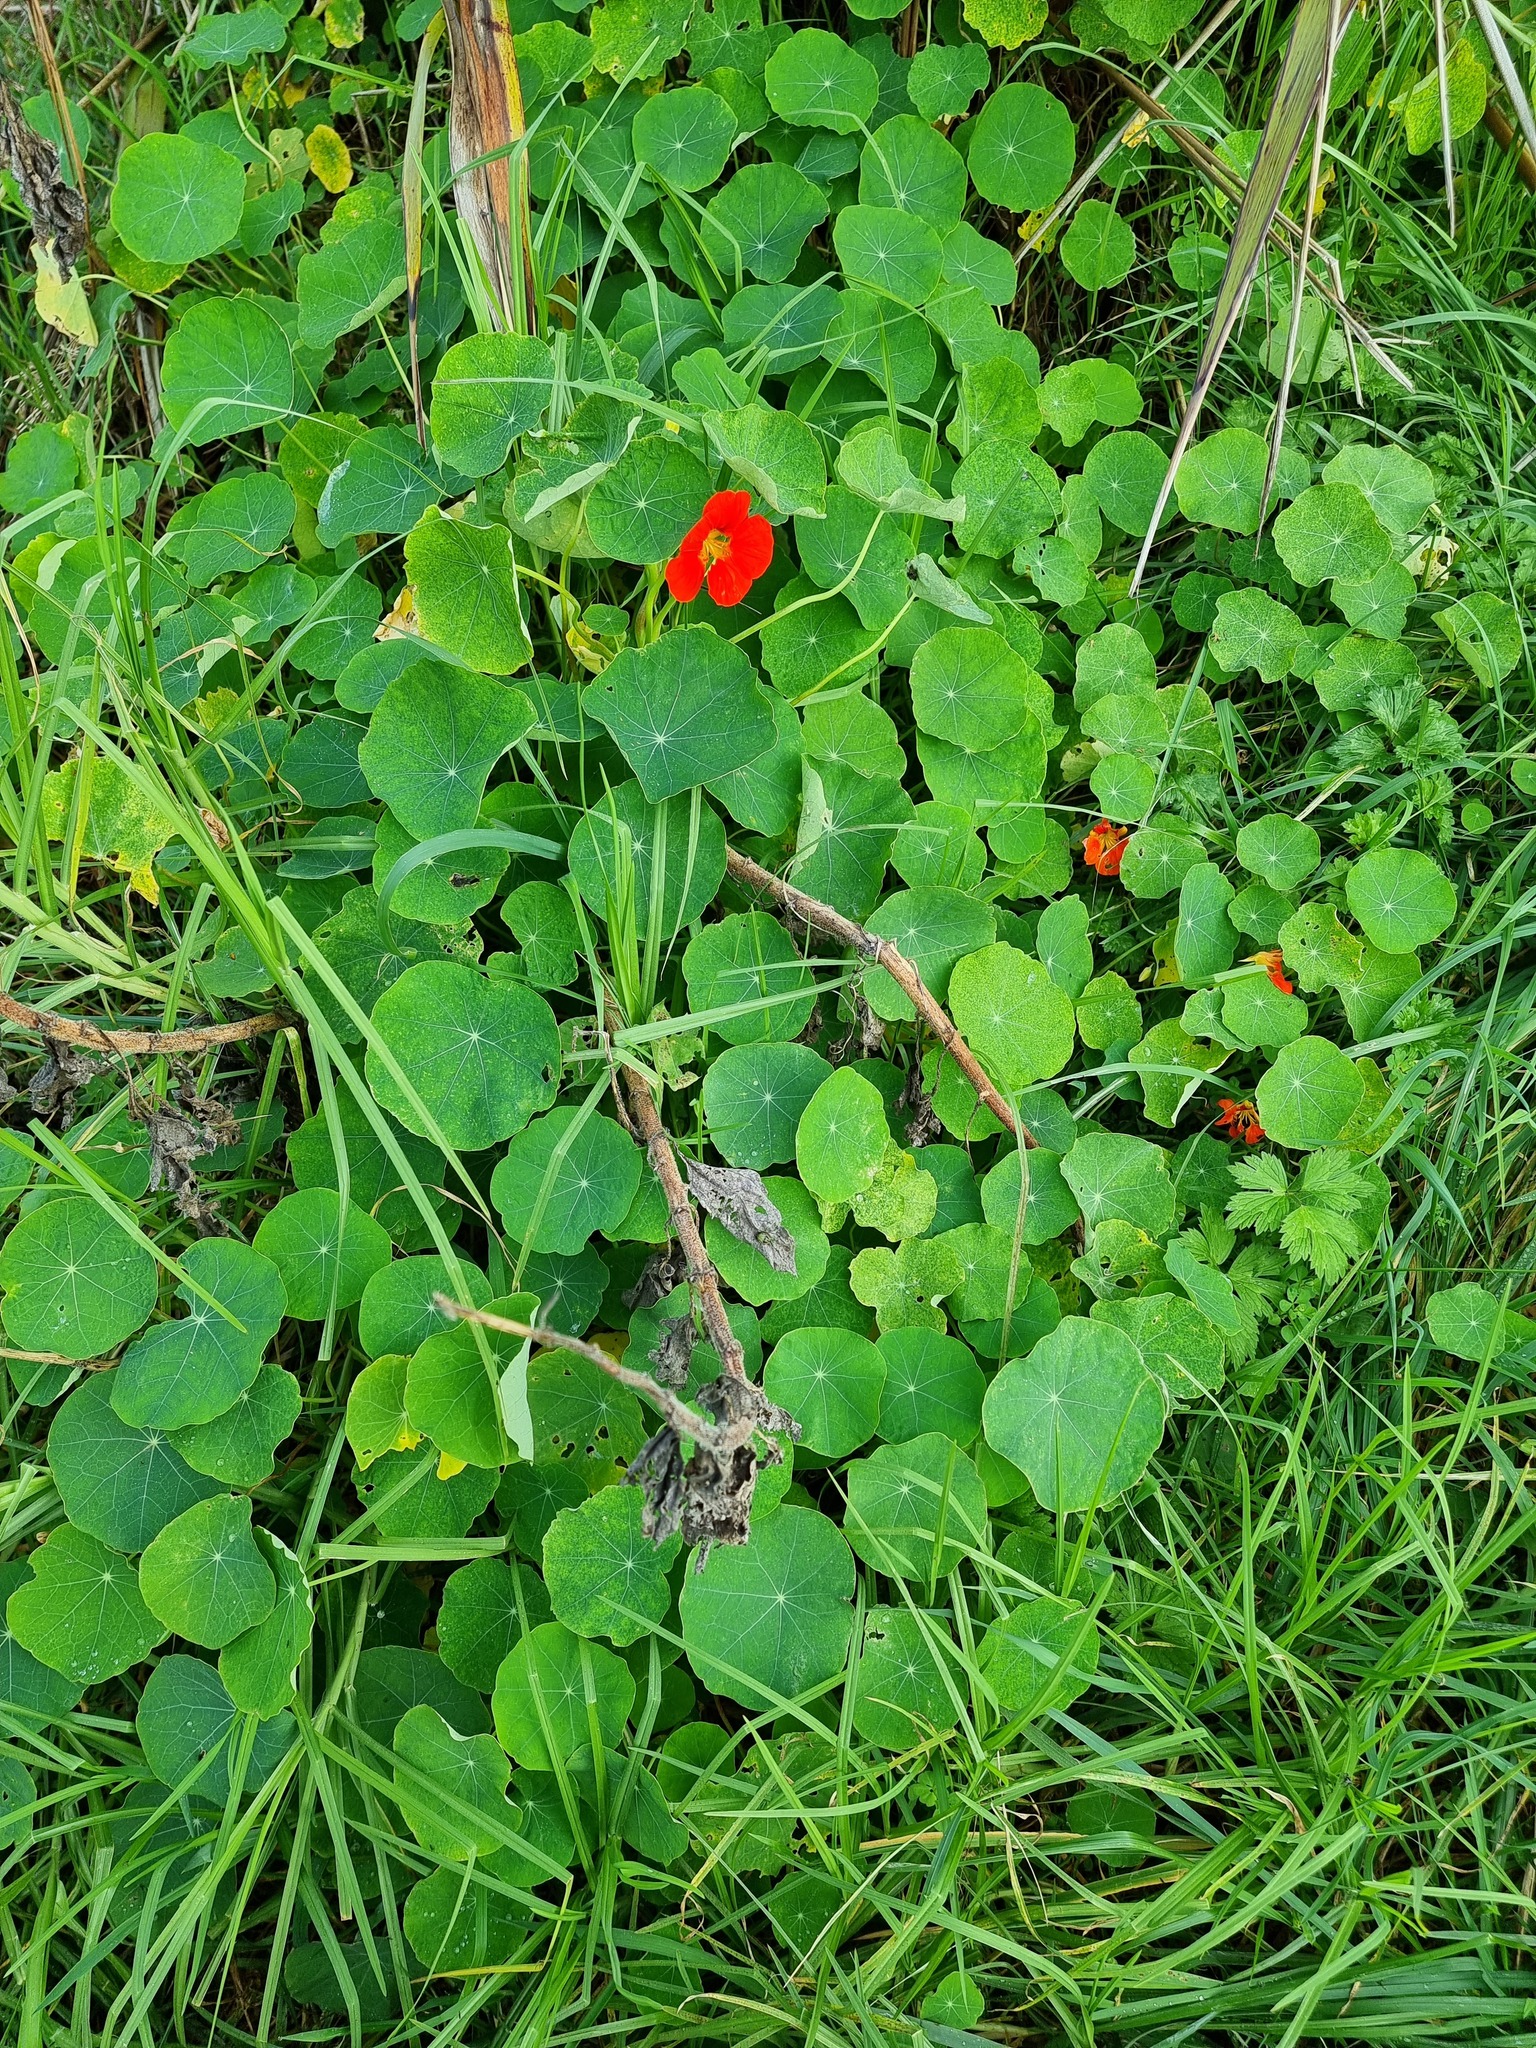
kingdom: Plantae
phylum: Tracheophyta
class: Magnoliopsida
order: Brassicales
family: Tropaeolaceae
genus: Tropaeolum
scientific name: Tropaeolum majus
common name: Nasturtium
